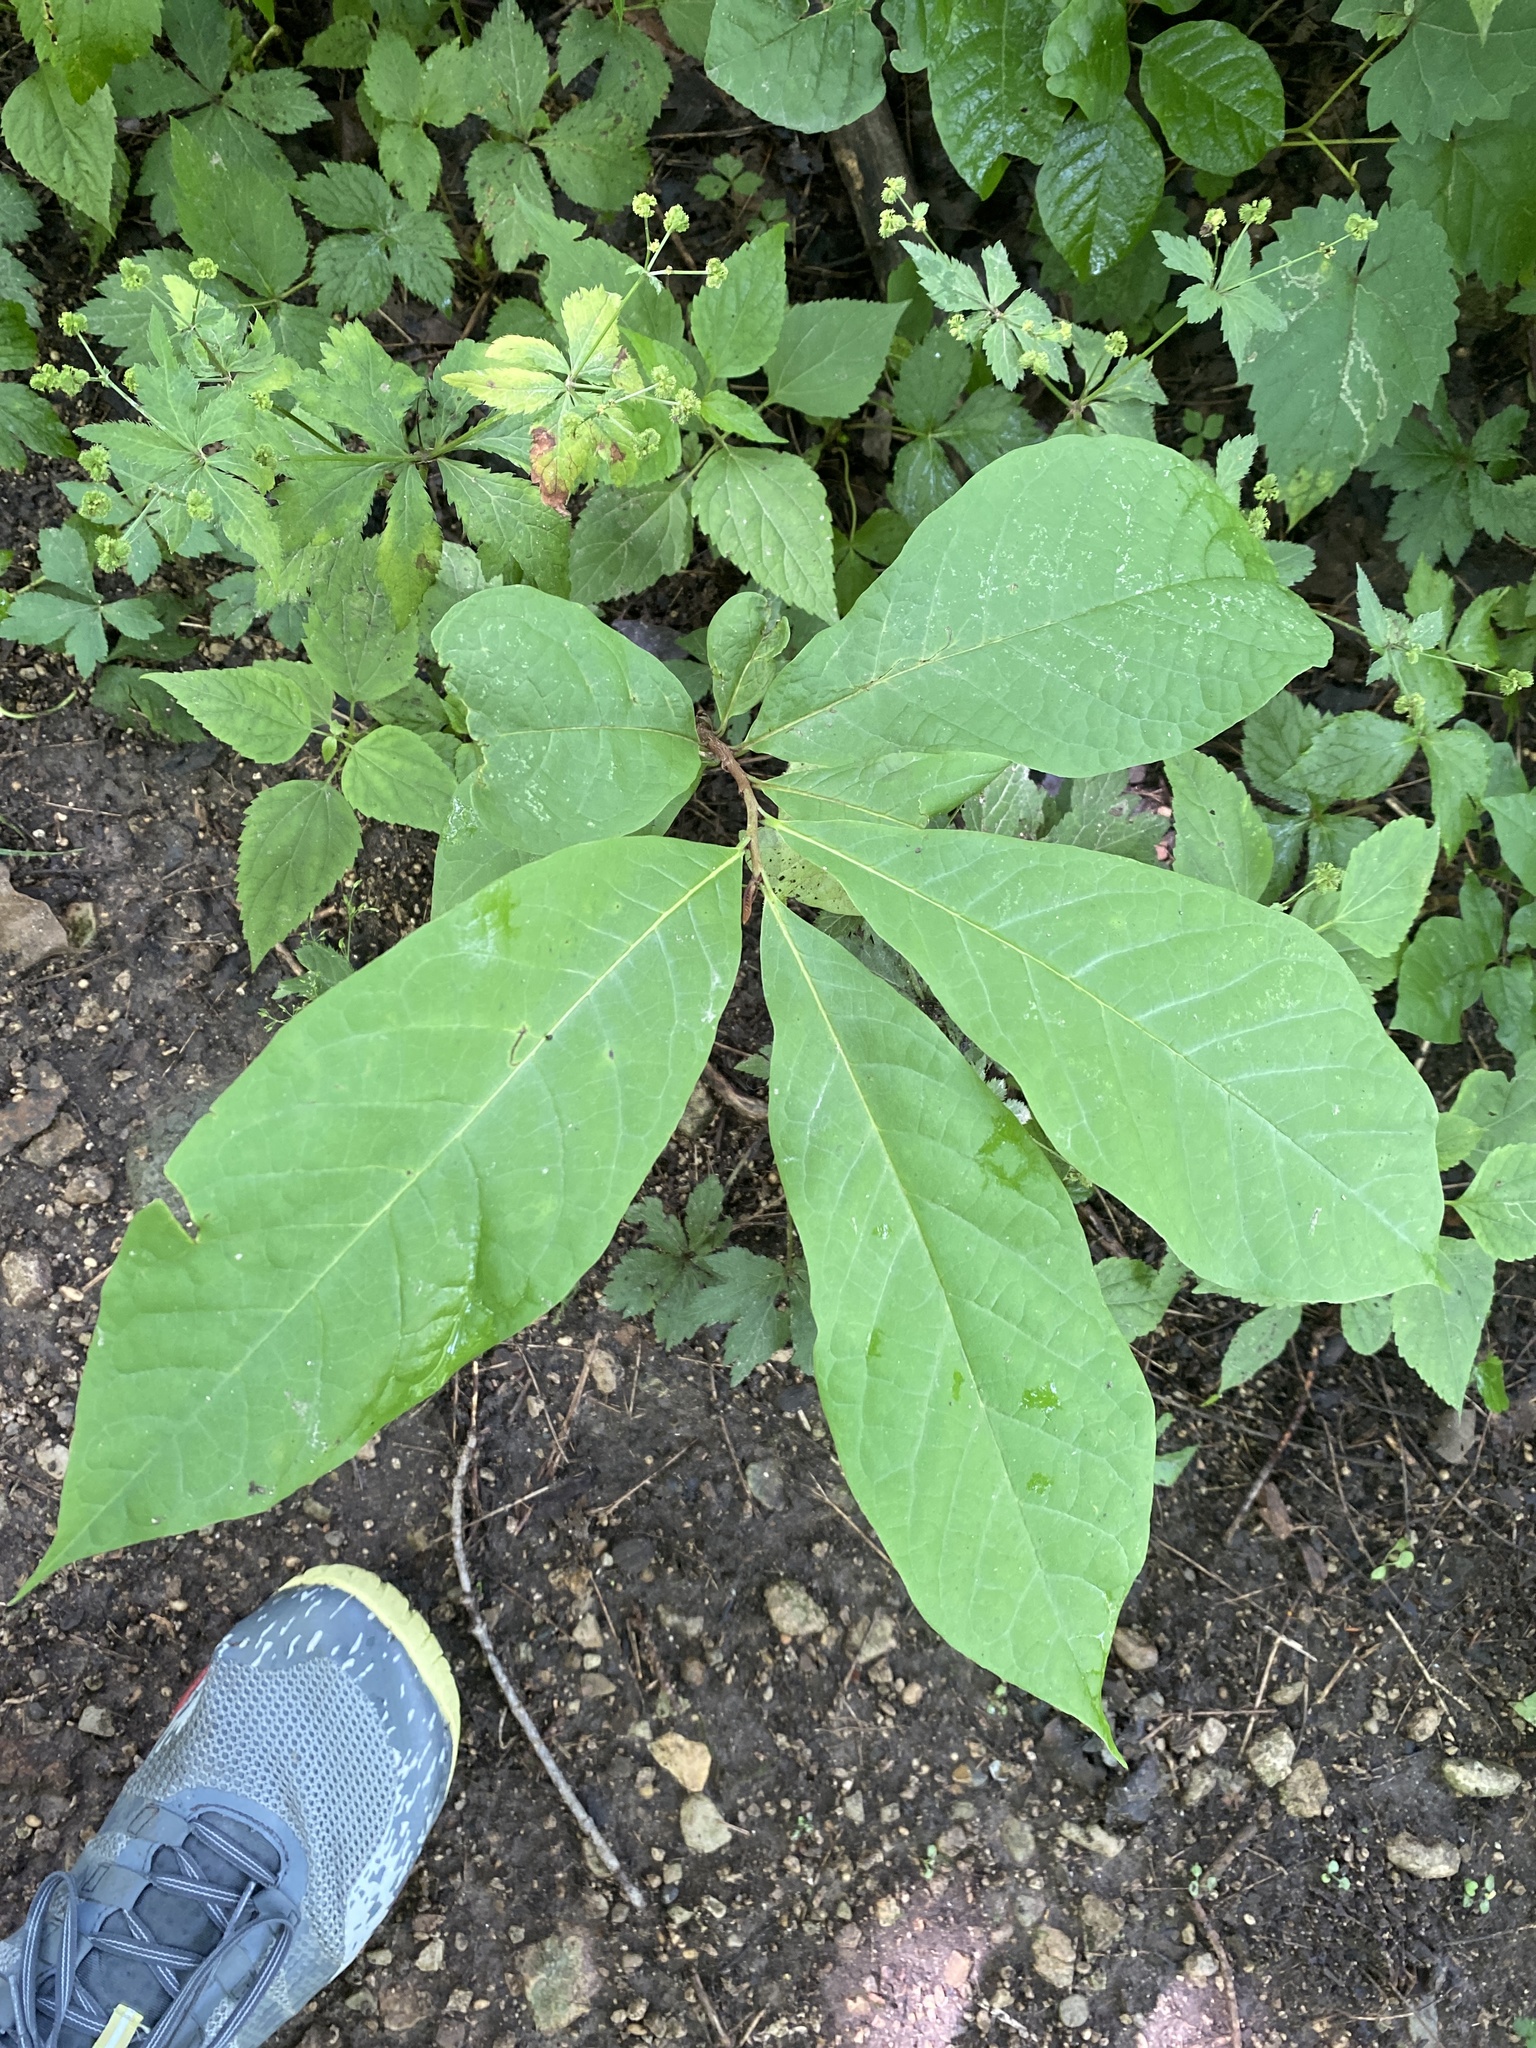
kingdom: Plantae
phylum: Tracheophyta
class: Magnoliopsida
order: Magnoliales
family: Annonaceae
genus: Asimina
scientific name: Asimina triloba
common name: Dog-banana
